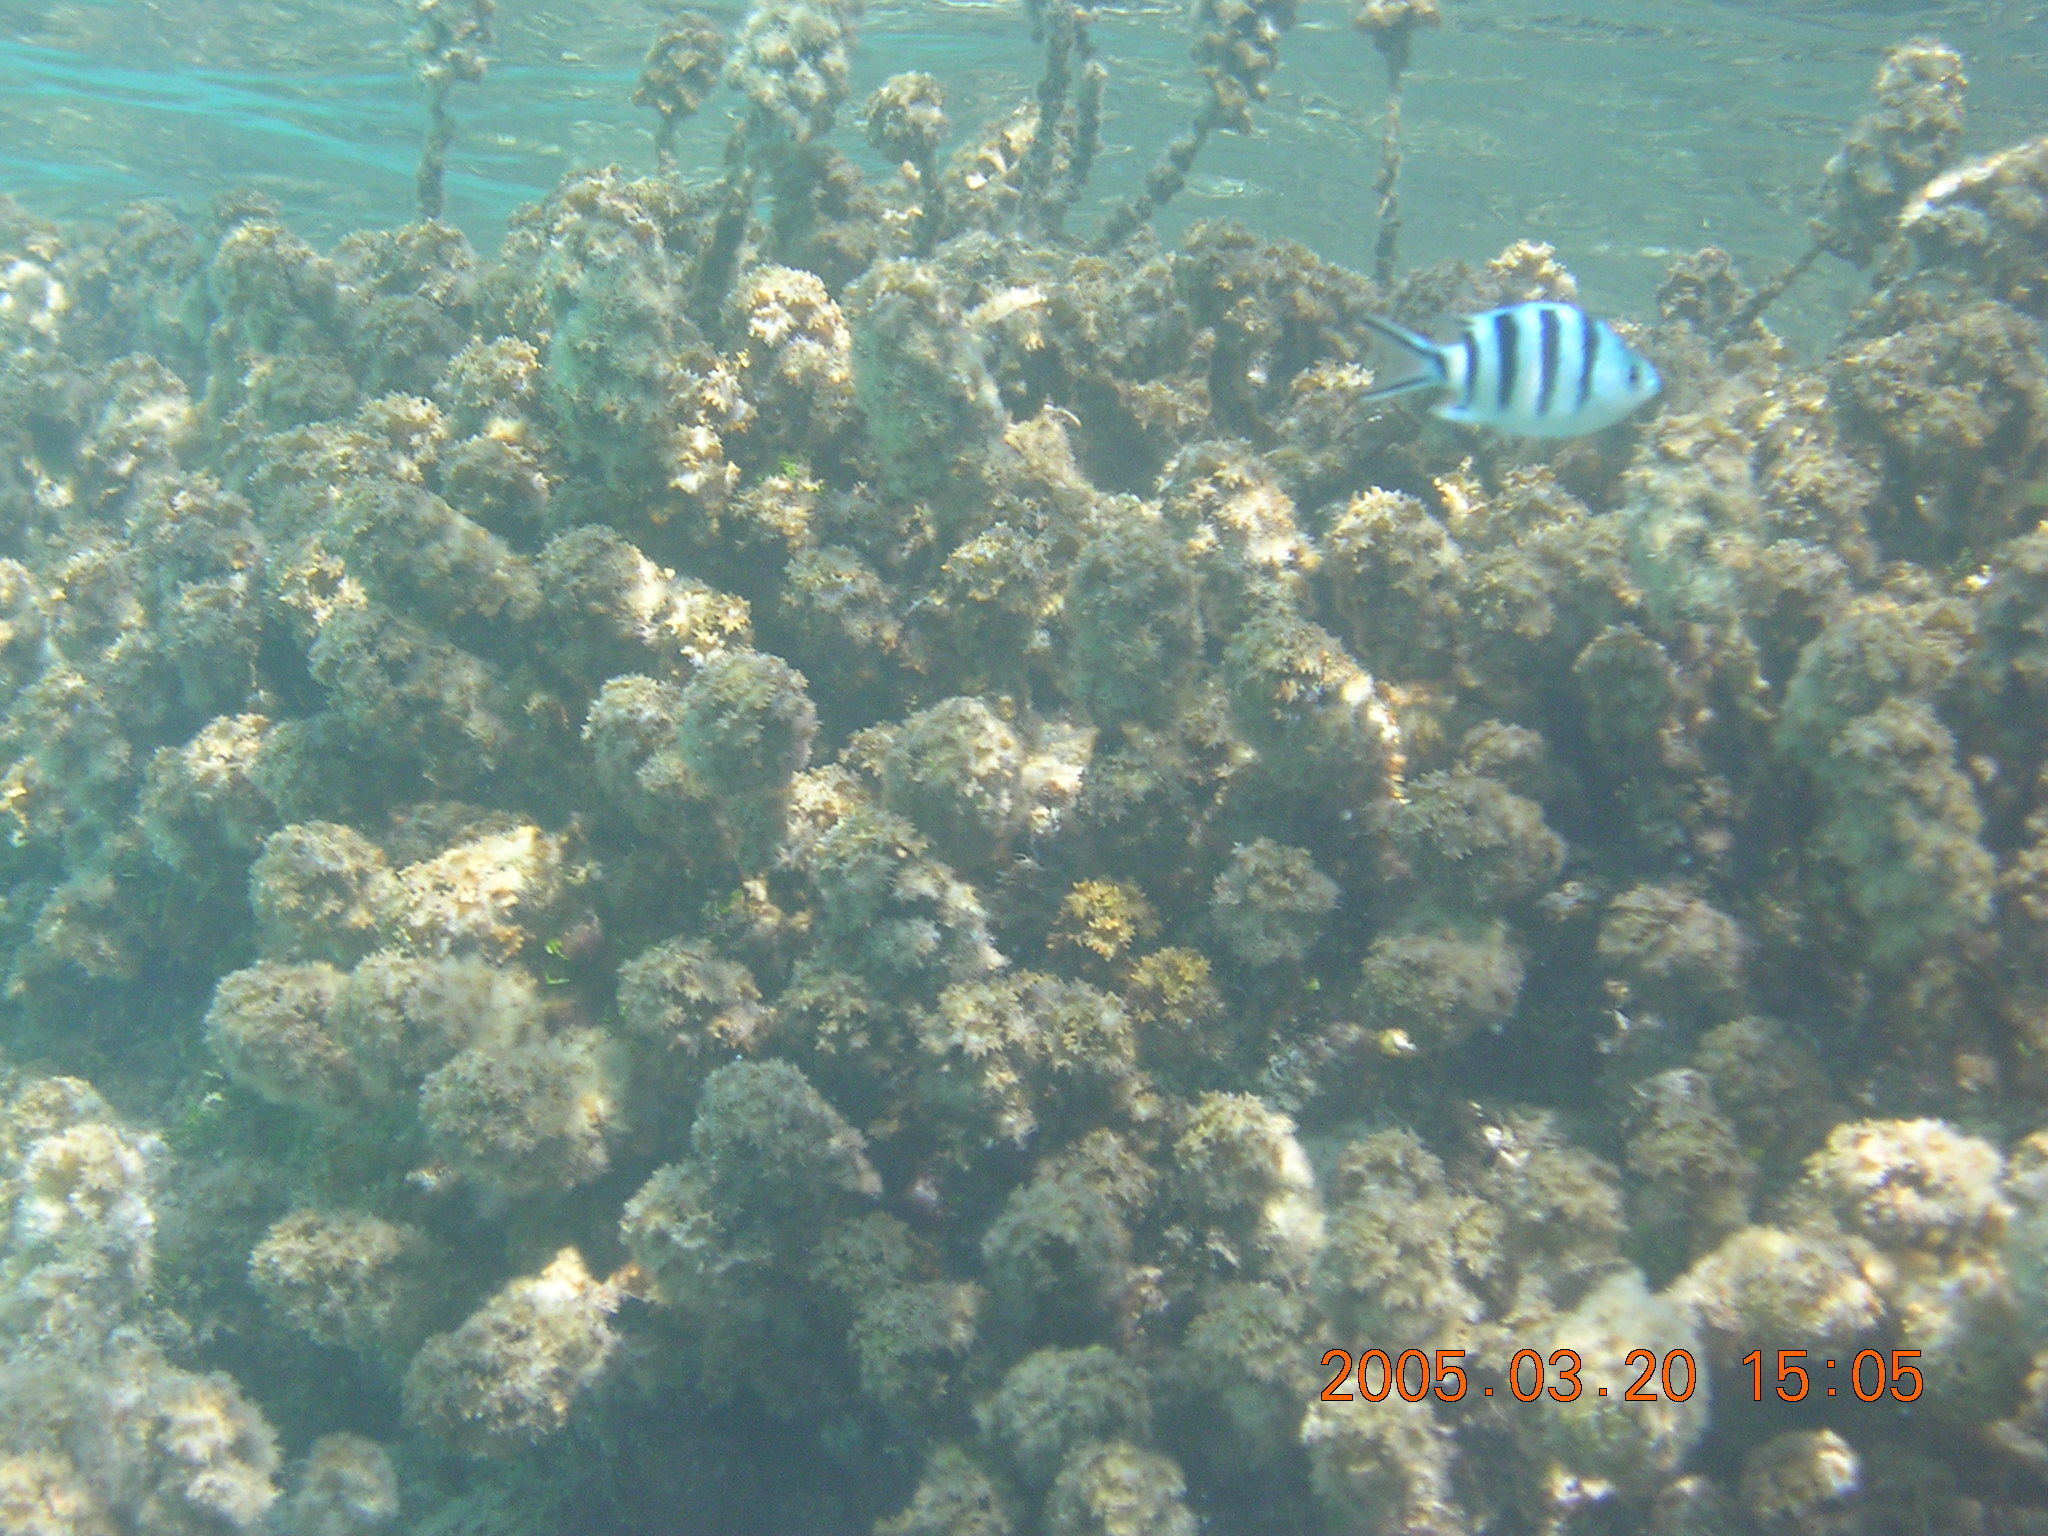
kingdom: Animalia
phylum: Chordata
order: Perciformes
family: Pomacentridae
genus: Abudefduf
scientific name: Abudefduf sexfasciatus
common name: Scissortail sergeant
